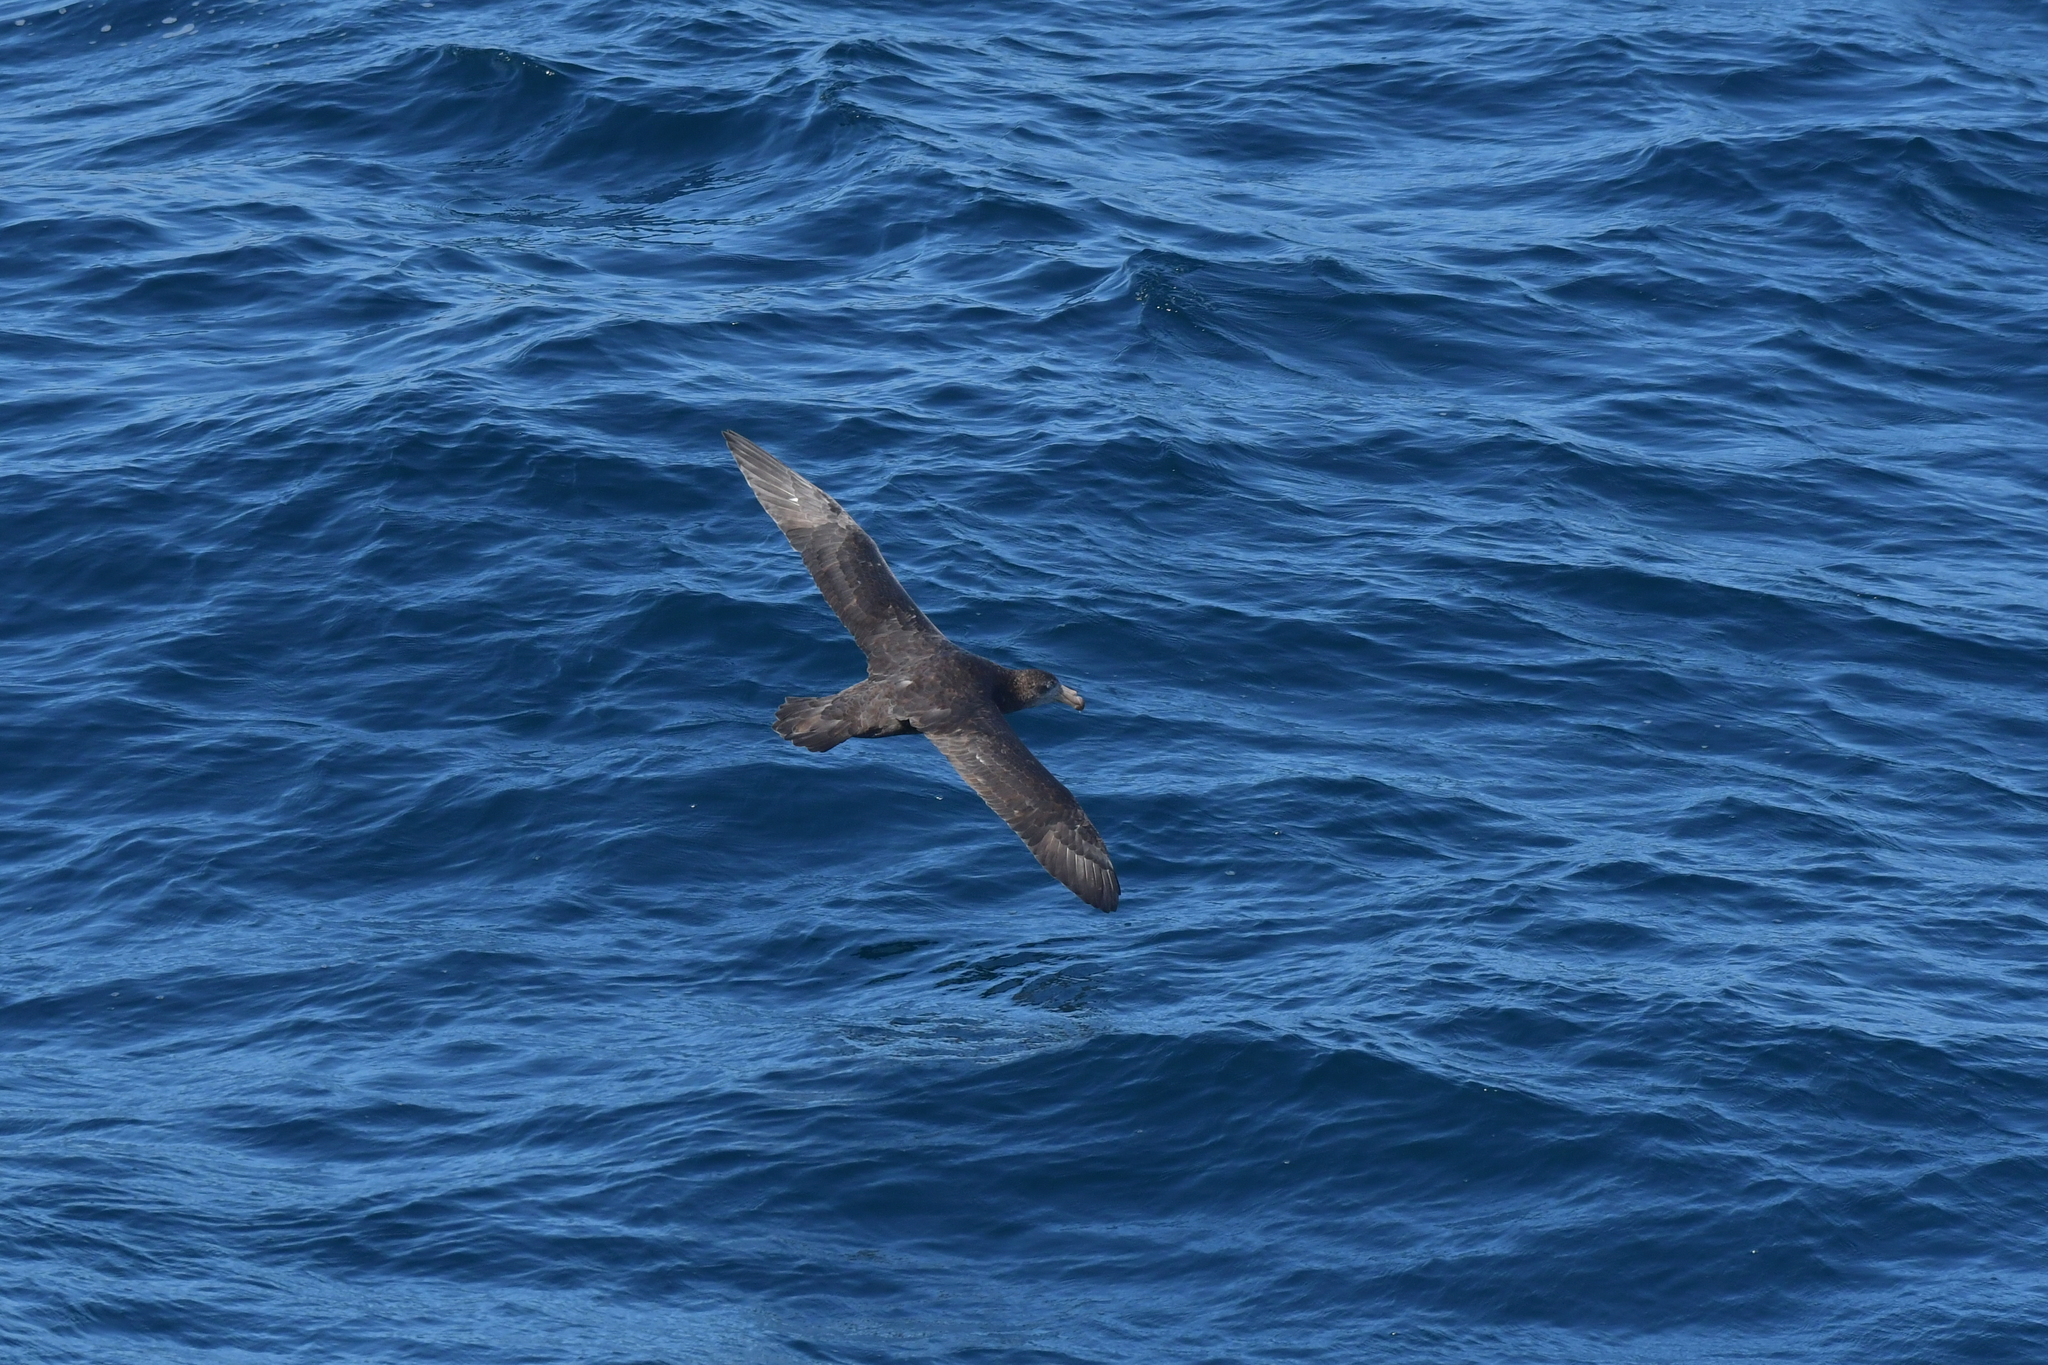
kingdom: Animalia
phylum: Chordata
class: Aves
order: Procellariiformes
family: Procellariidae
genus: Macronectes
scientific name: Macronectes halli
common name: Northern giant petrel
